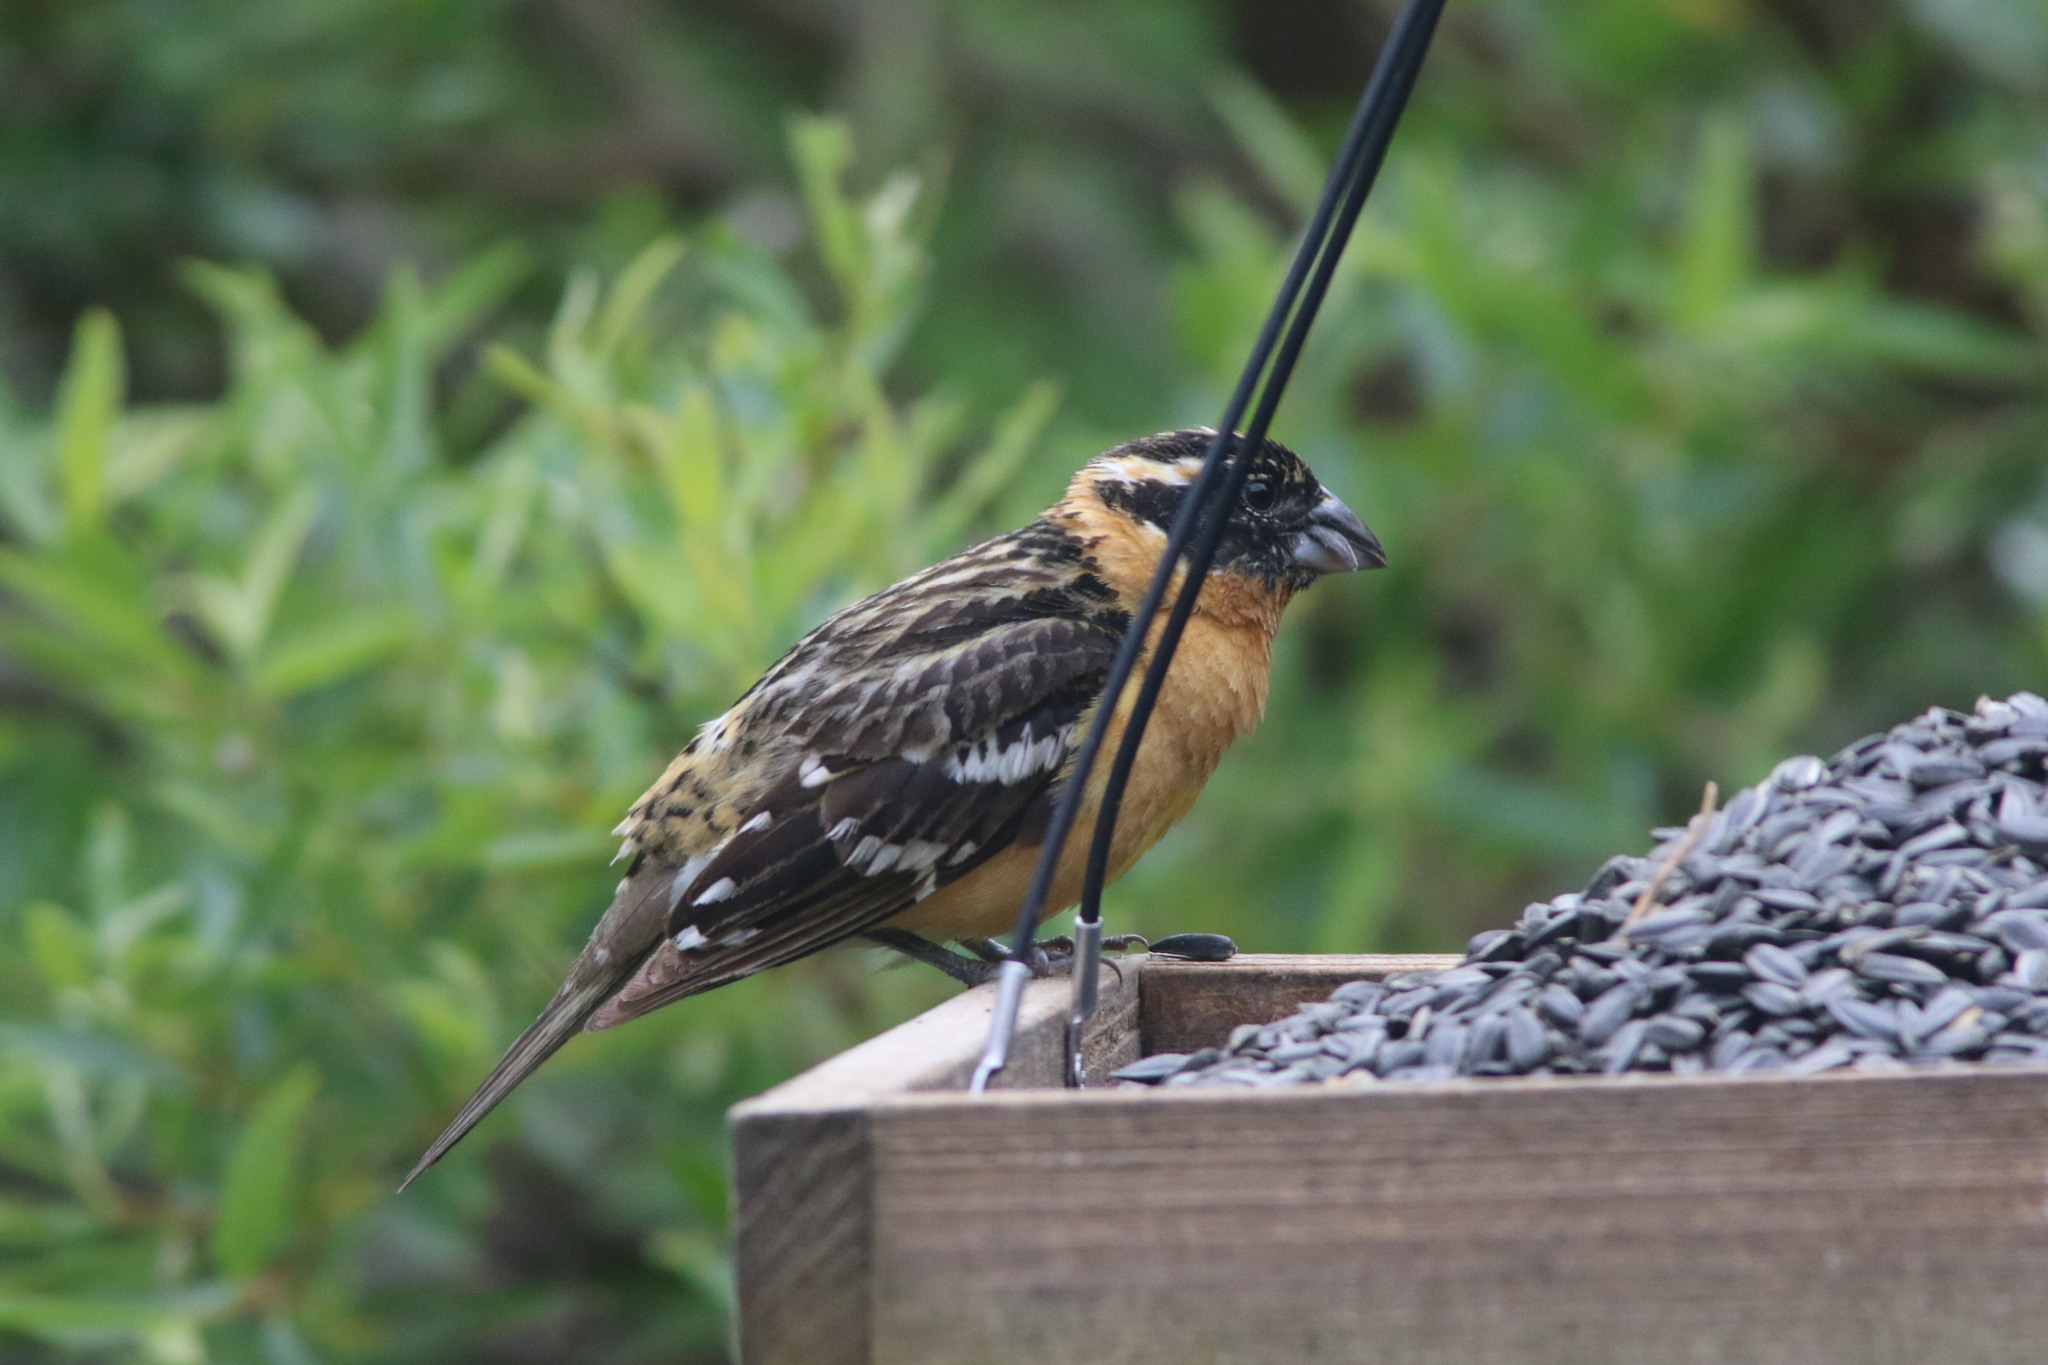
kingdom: Animalia
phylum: Chordata
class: Aves
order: Passeriformes
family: Cardinalidae
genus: Pheucticus
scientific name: Pheucticus melanocephalus
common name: Black-headed grosbeak
